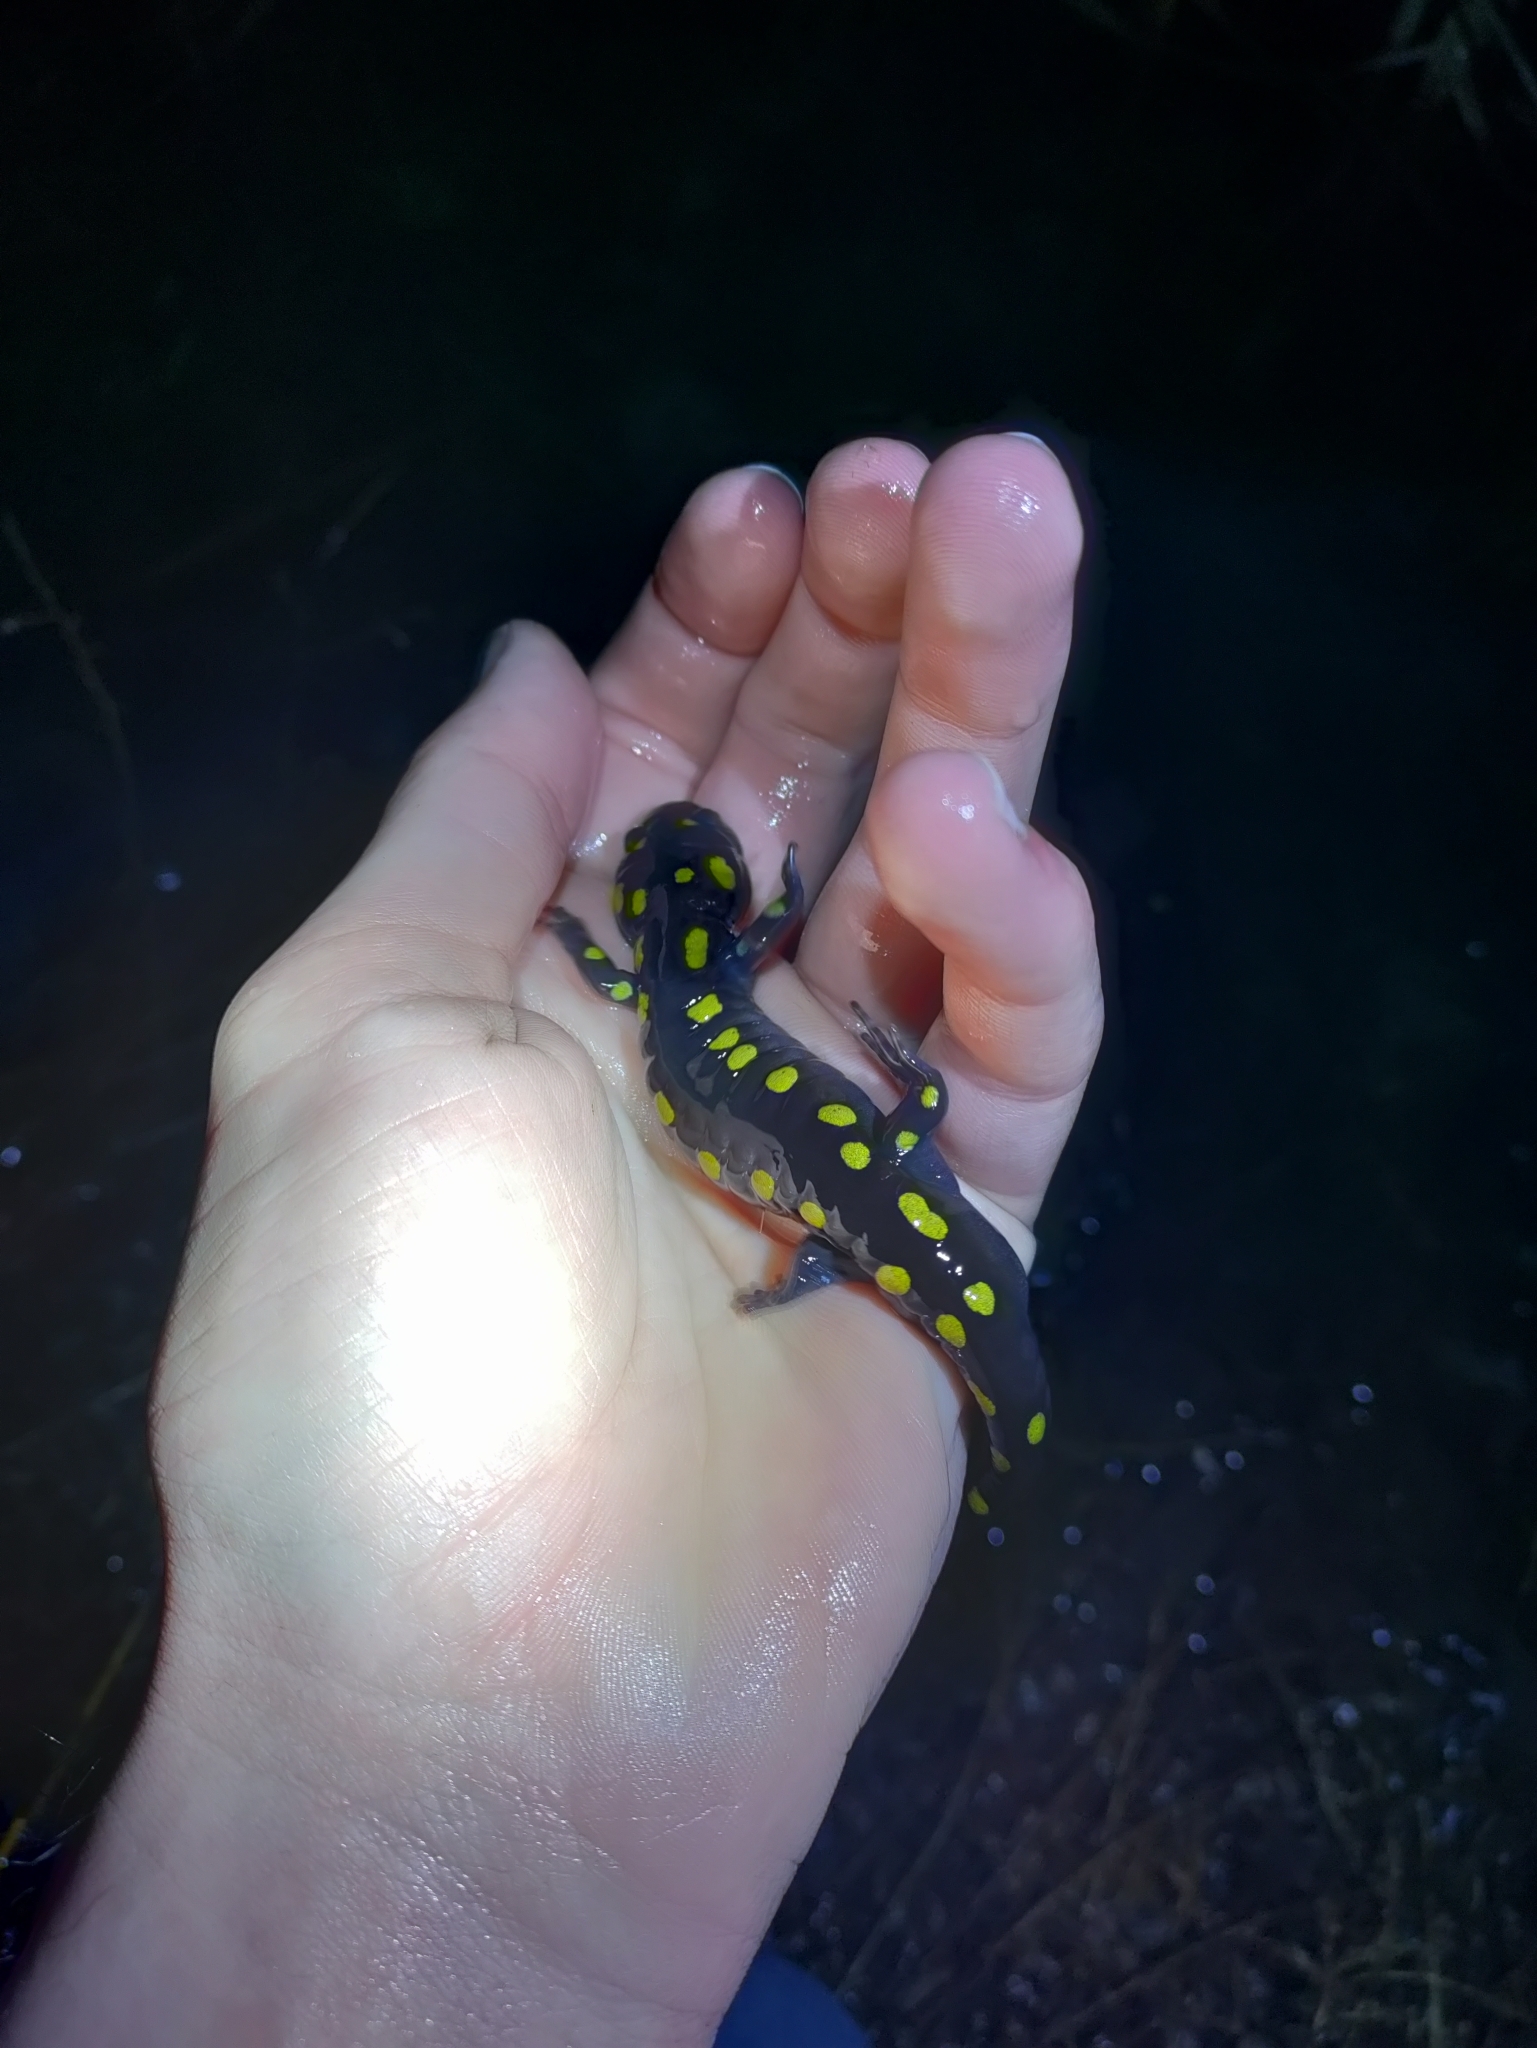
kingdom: Animalia
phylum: Chordata
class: Amphibia
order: Caudata
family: Ambystomatidae
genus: Ambystoma
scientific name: Ambystoma maculatum
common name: Spotted salamander
